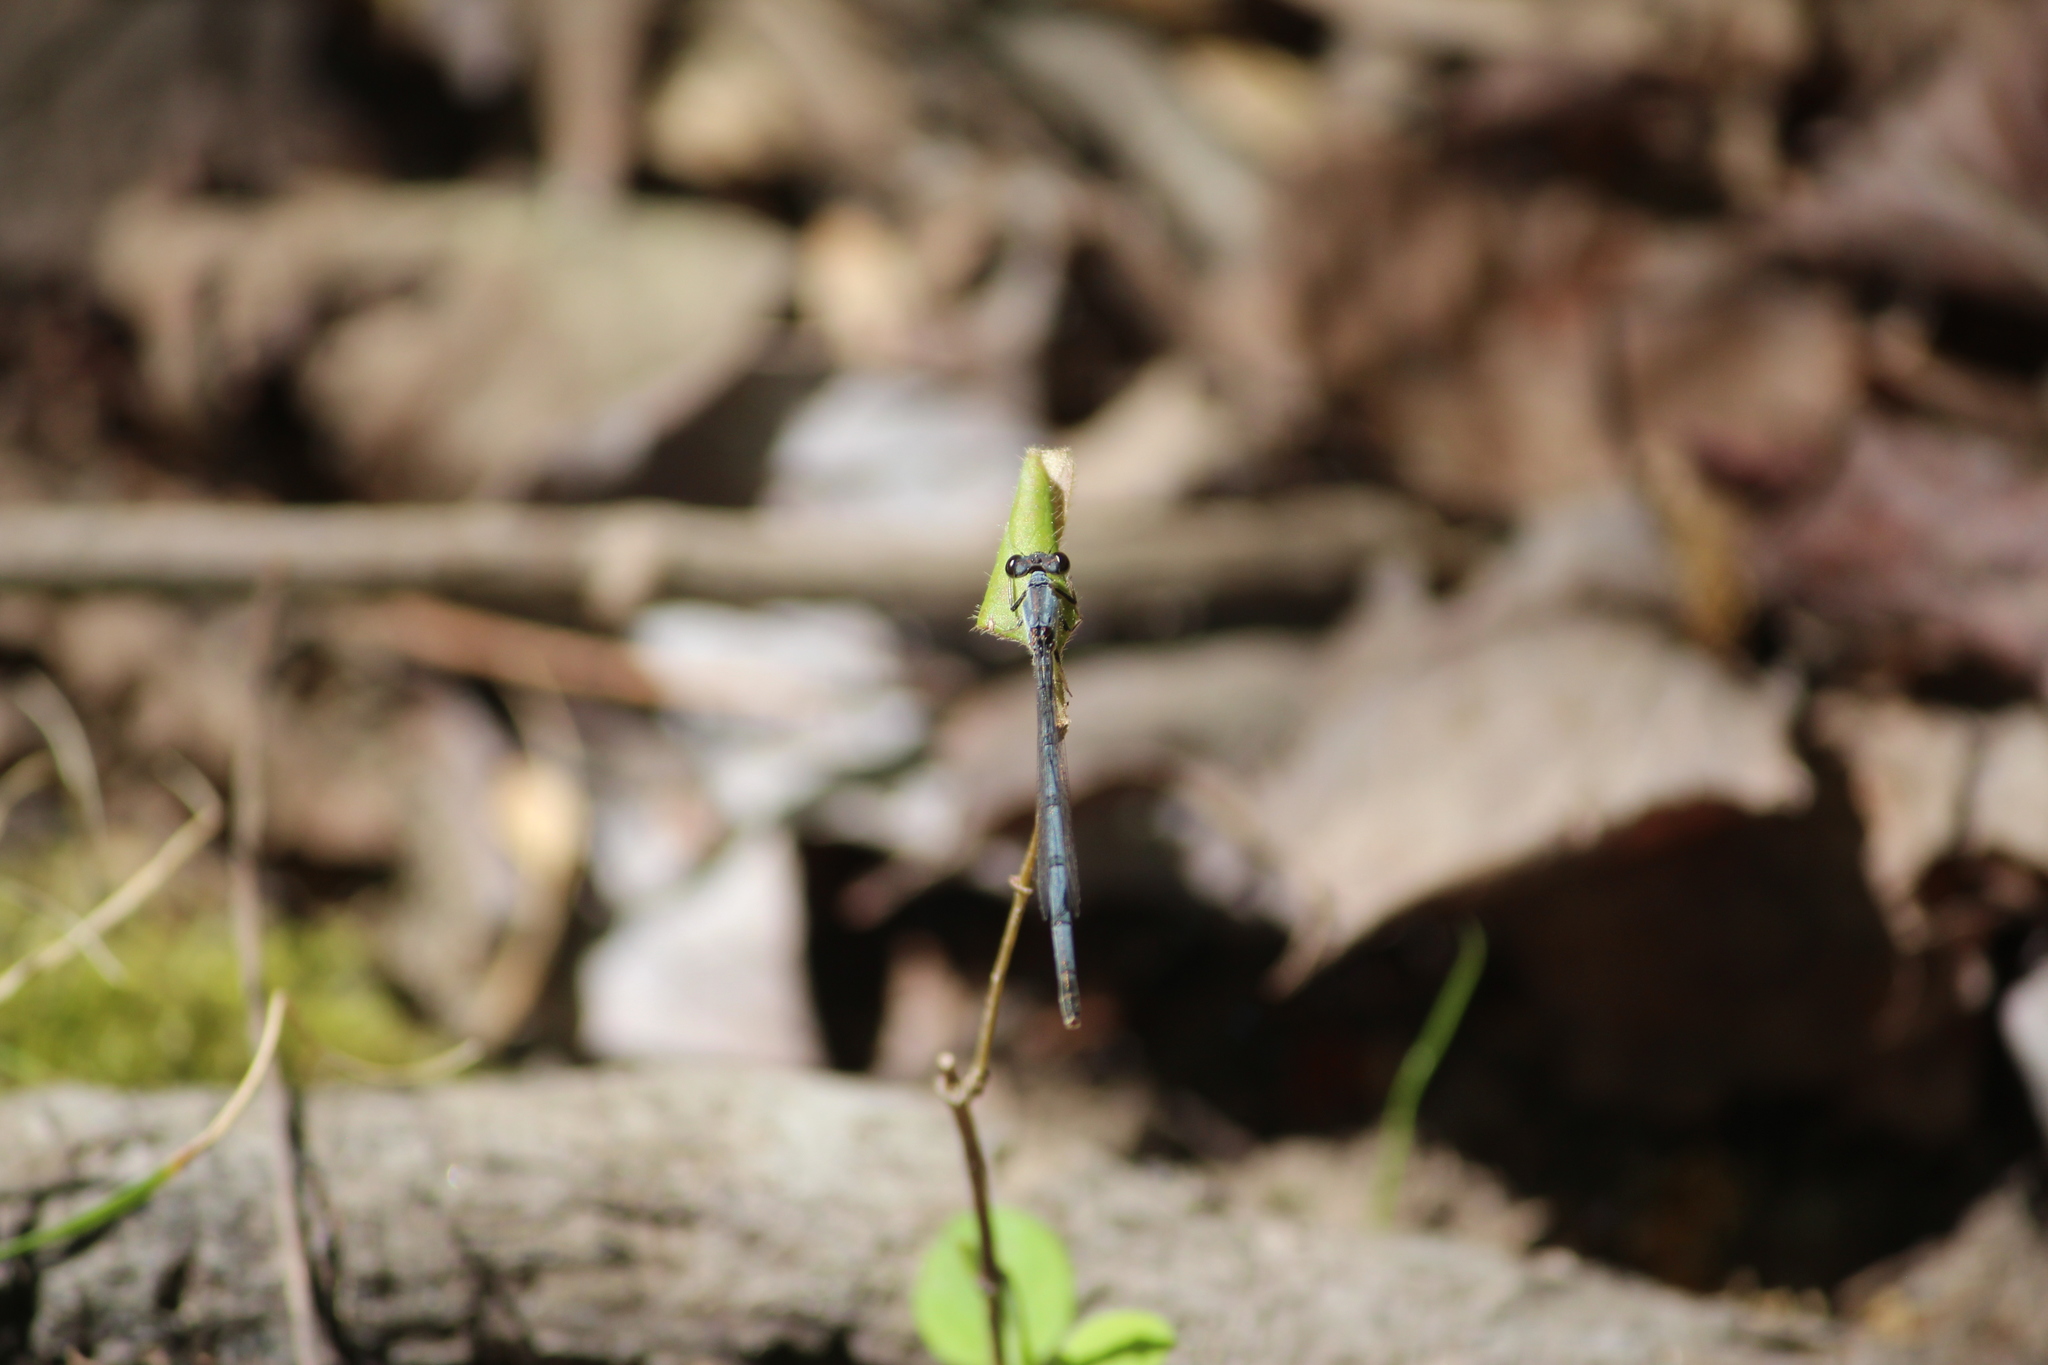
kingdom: Animalia
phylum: Arthropoda
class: Insecta
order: Odonata
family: Coenagrionidae
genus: Ischnura
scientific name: Ischnura posita
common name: Fragile forktail
